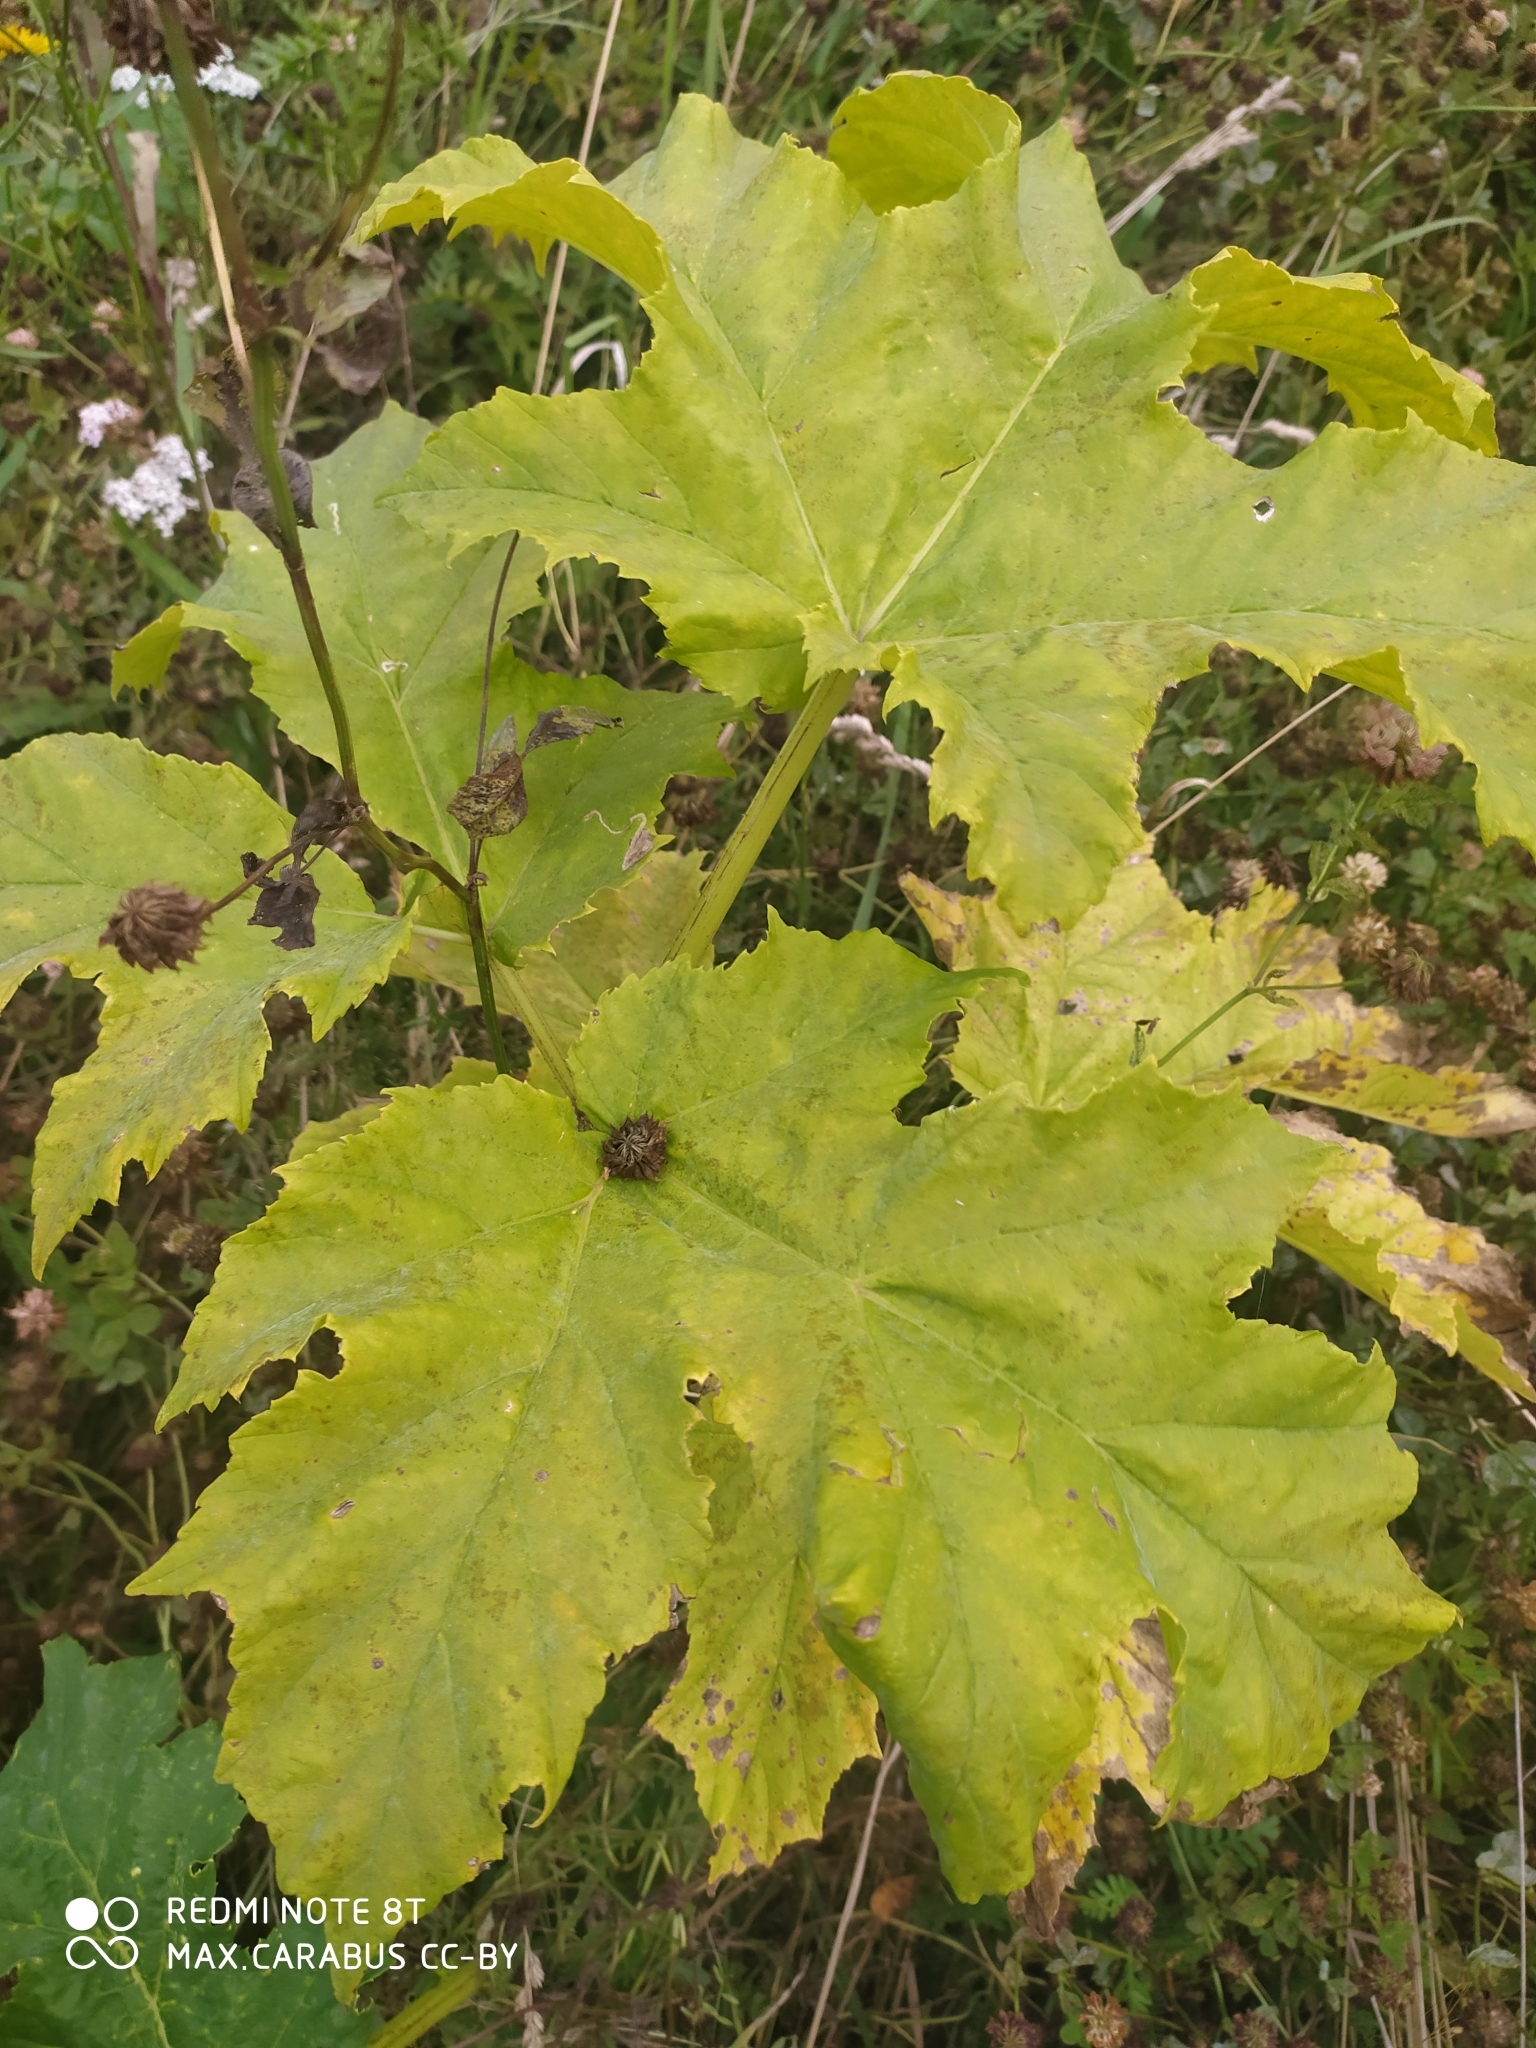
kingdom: Plantae
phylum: Tracheophyta
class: Magnoliopsida
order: Apiales
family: Apiaceae
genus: Heracleum
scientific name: Heracleum sosnowskyi
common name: Sosnowsky's hogweed
